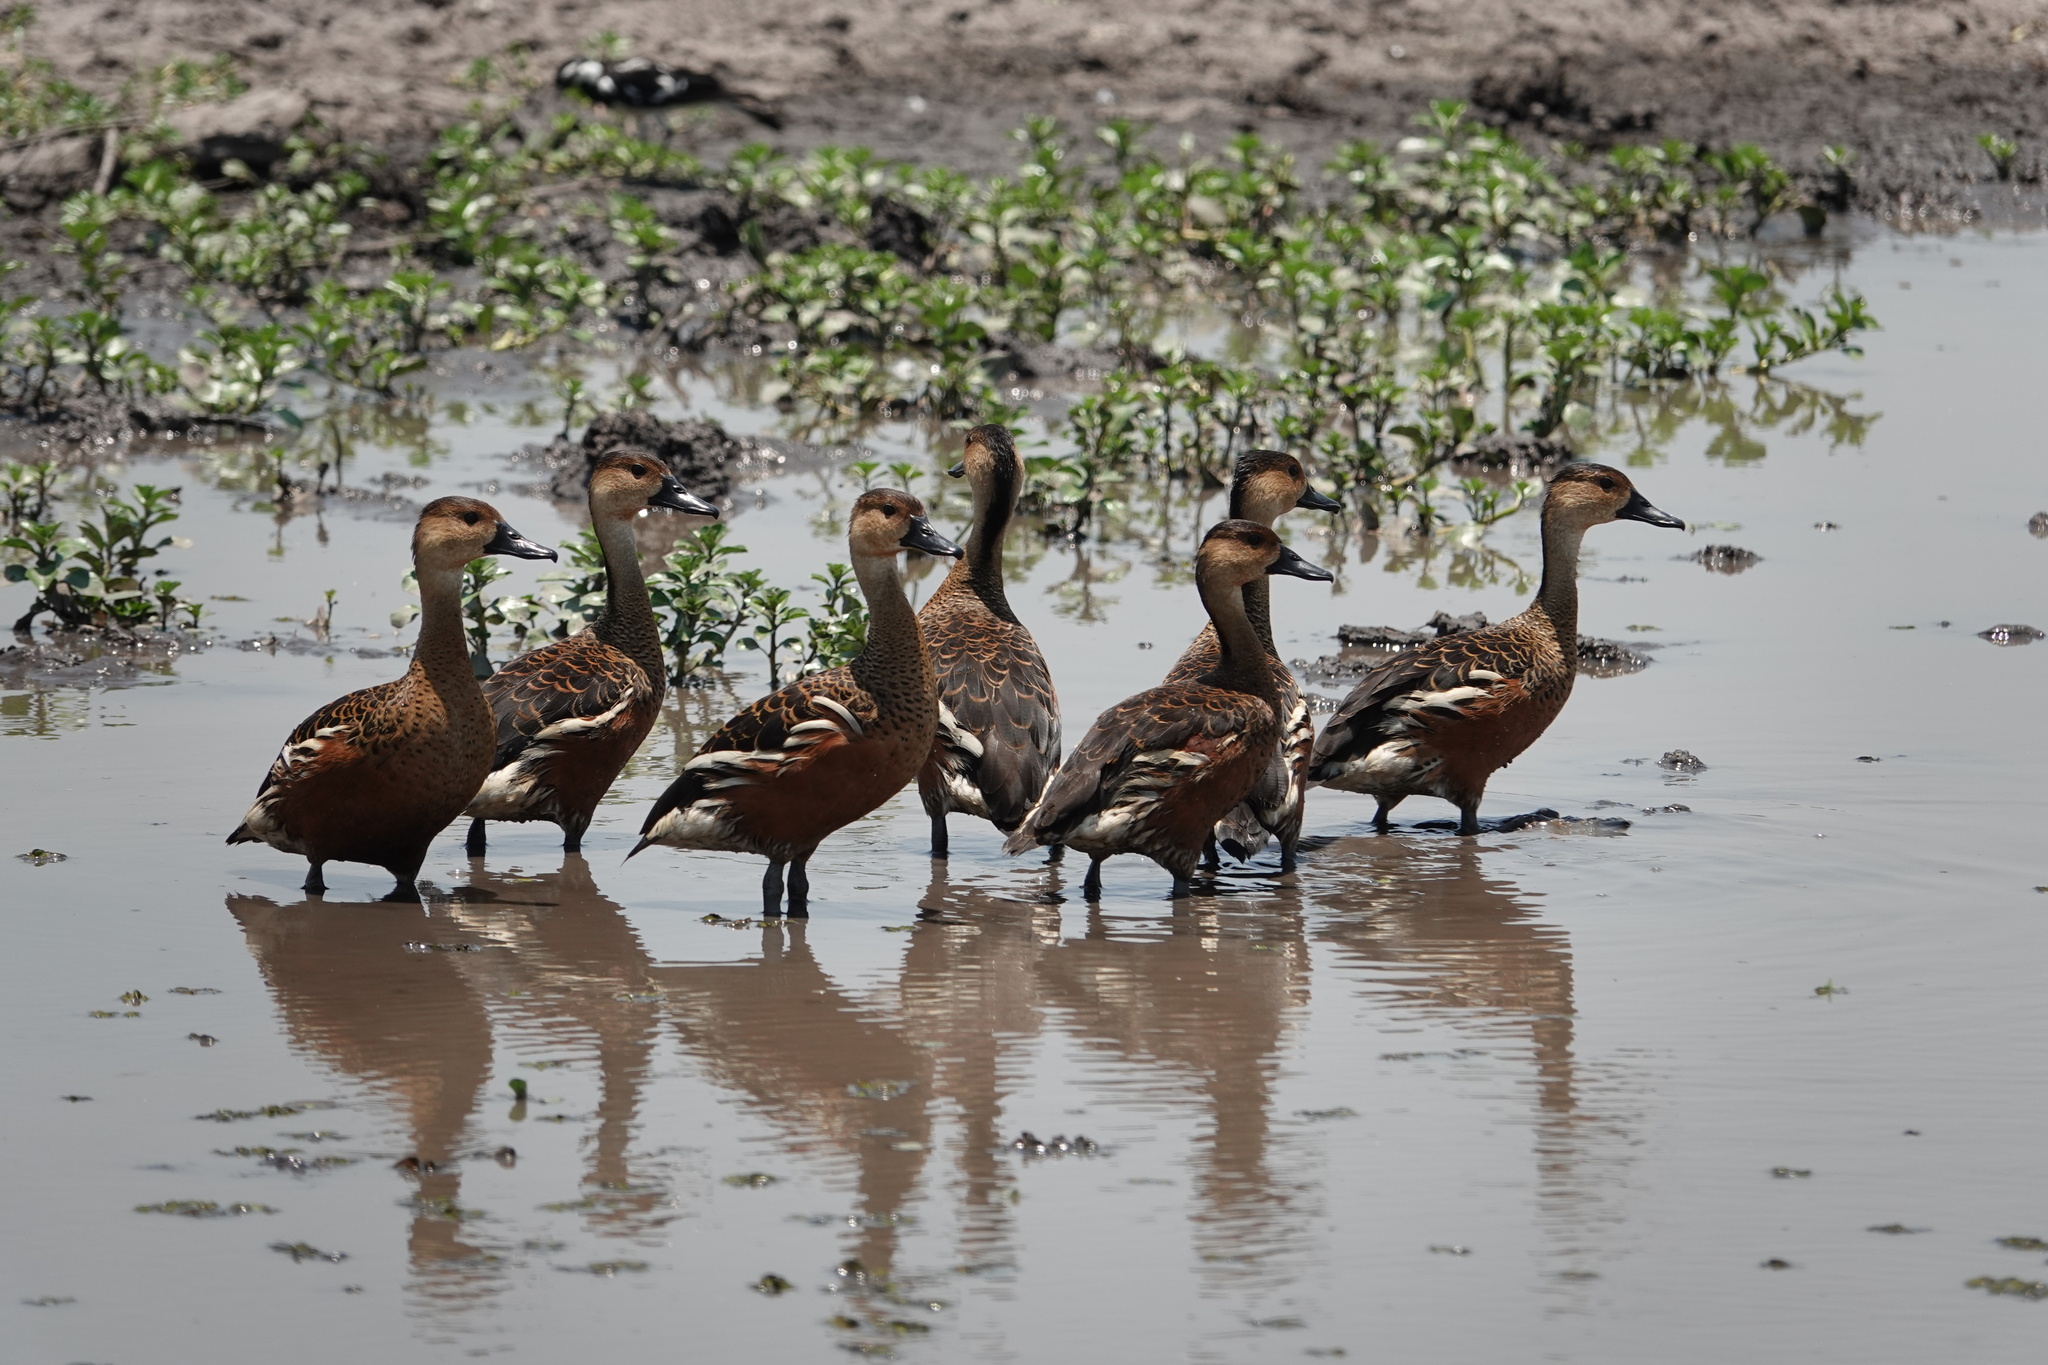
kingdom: Animalia
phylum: Chordata
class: Aves
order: Anseriformes
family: Anatidae
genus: Dendrocygna
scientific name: Dendrocygna arcuata
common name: Wandering whistling-duck
